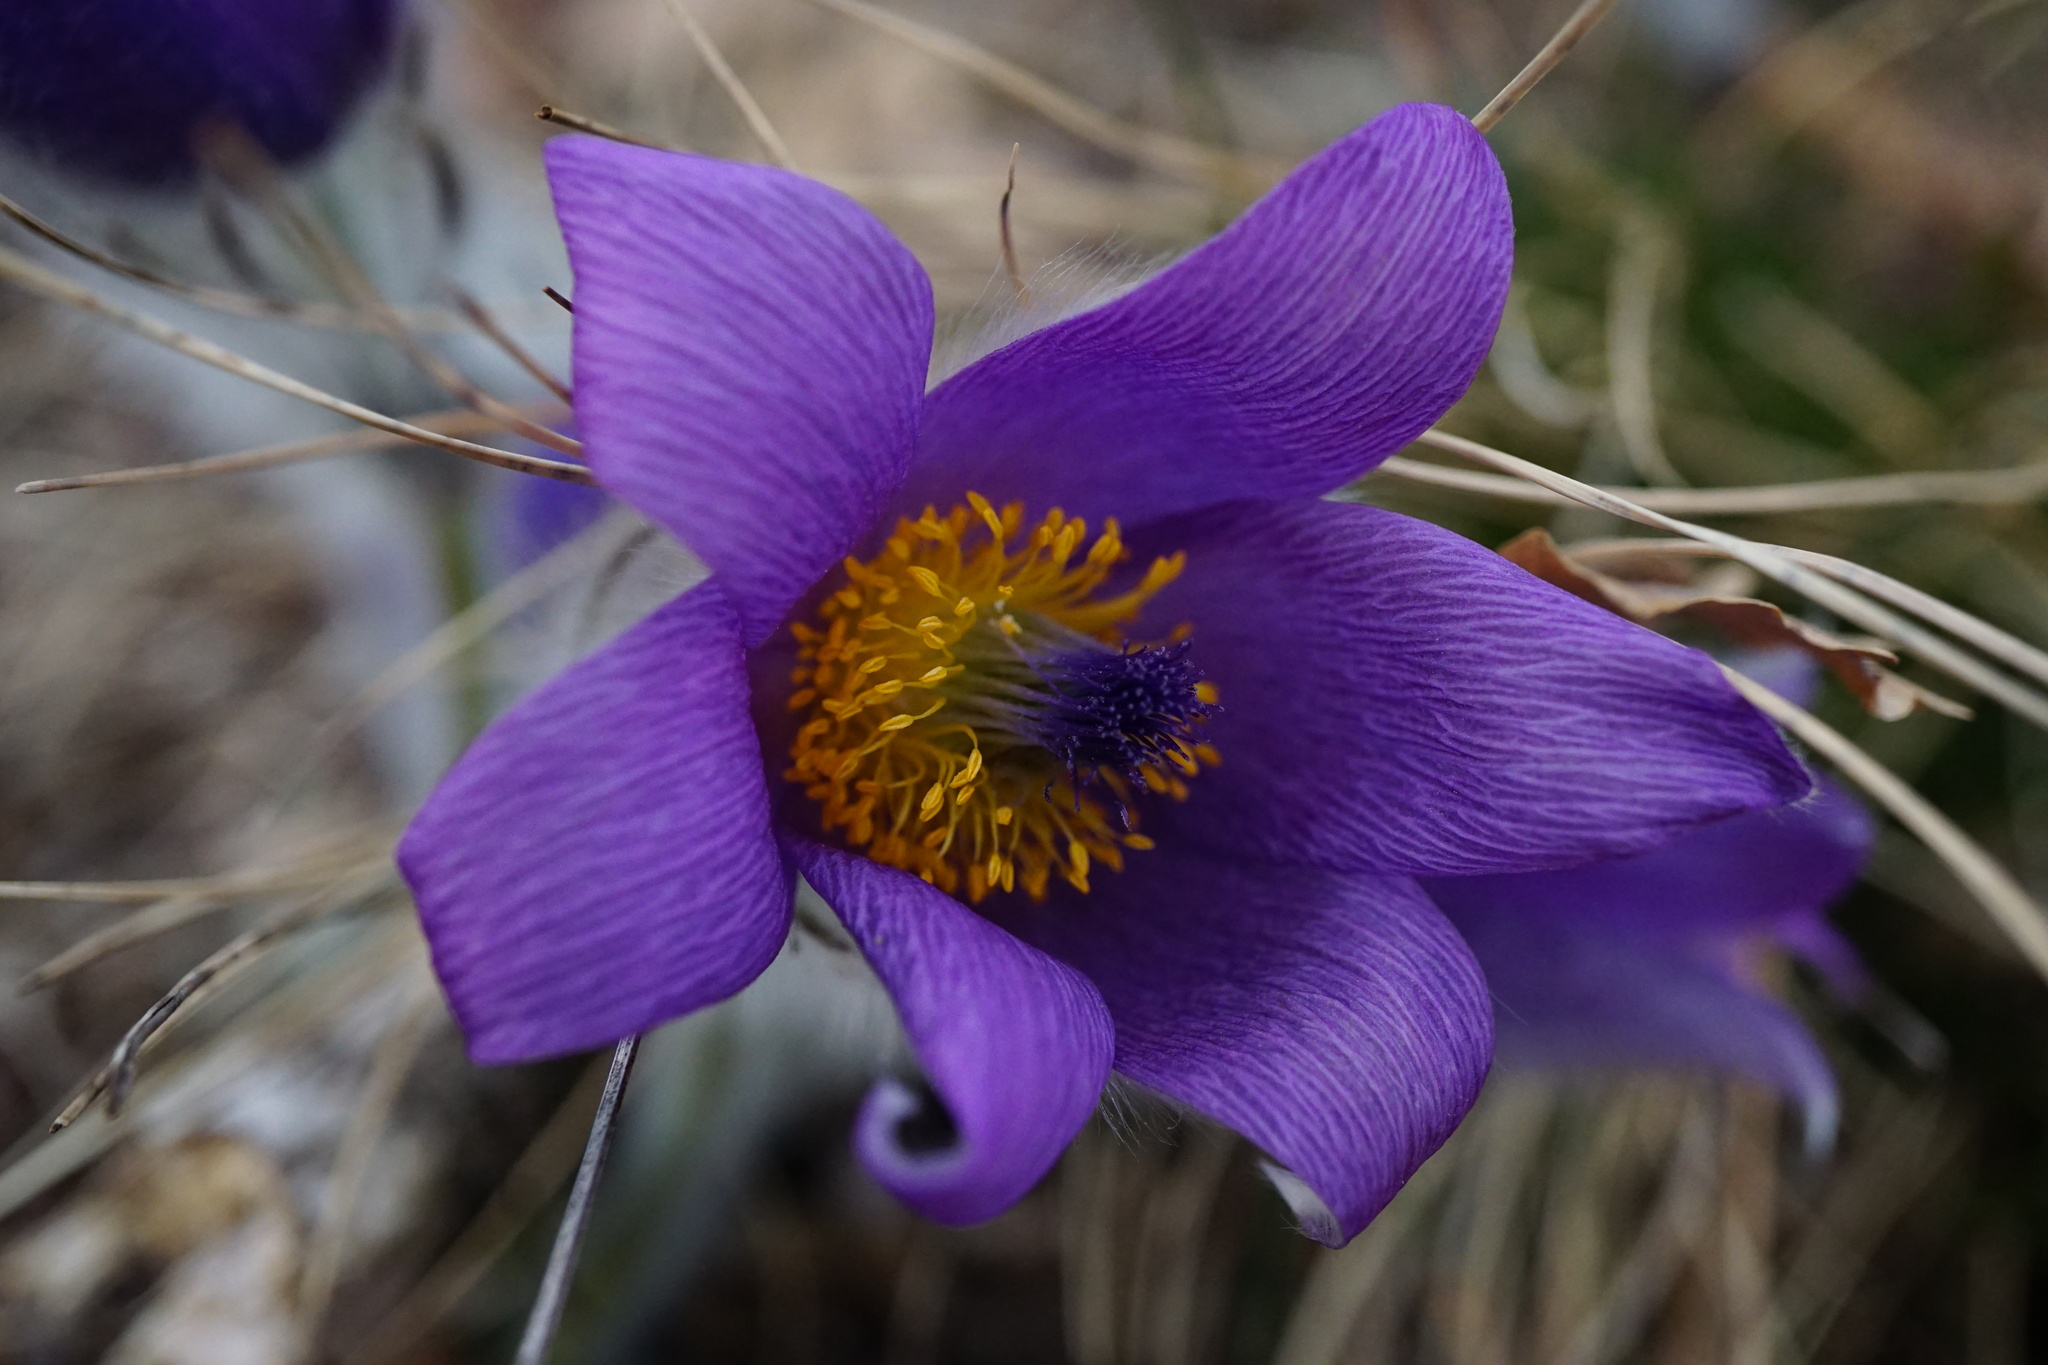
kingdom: Plantae
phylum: Tracheophyta
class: Magnoliopsida
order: Ranunculales
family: Ranunculaceae
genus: Pulsatilla
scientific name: Pulsatilla grandis
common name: Greater pasque flower
